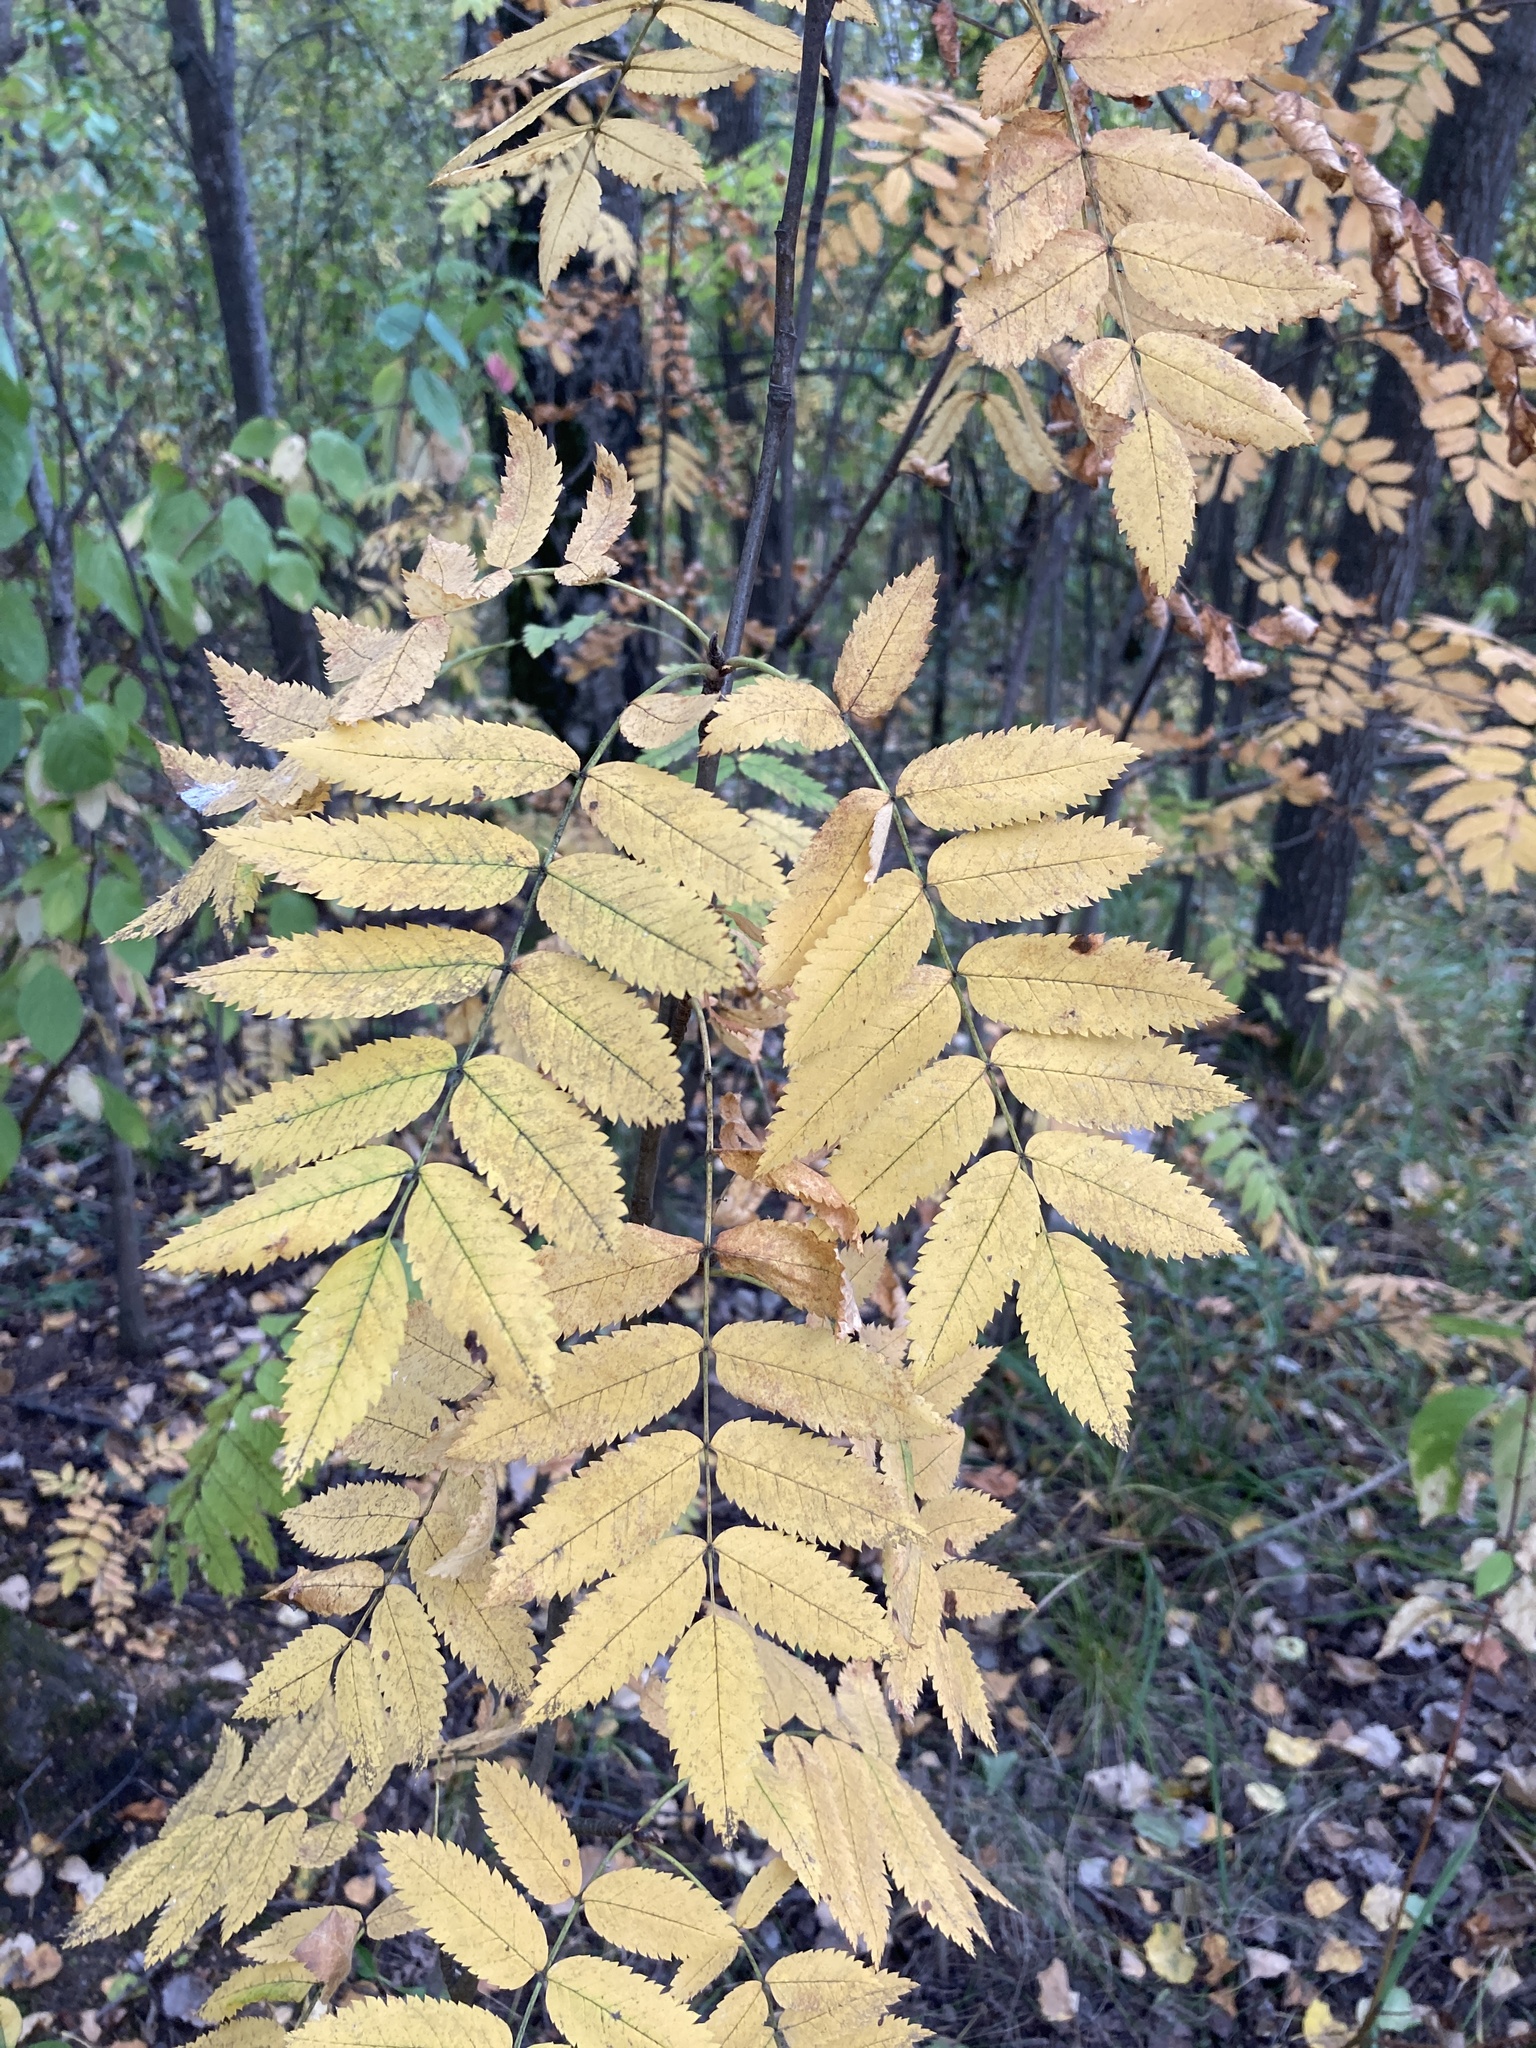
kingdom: Plantae
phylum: Tracheophyta
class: Magnoliopsida
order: Rosales
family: Rosaceae
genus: Sorbus
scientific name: Sorbus aucuparia
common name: Rowan
